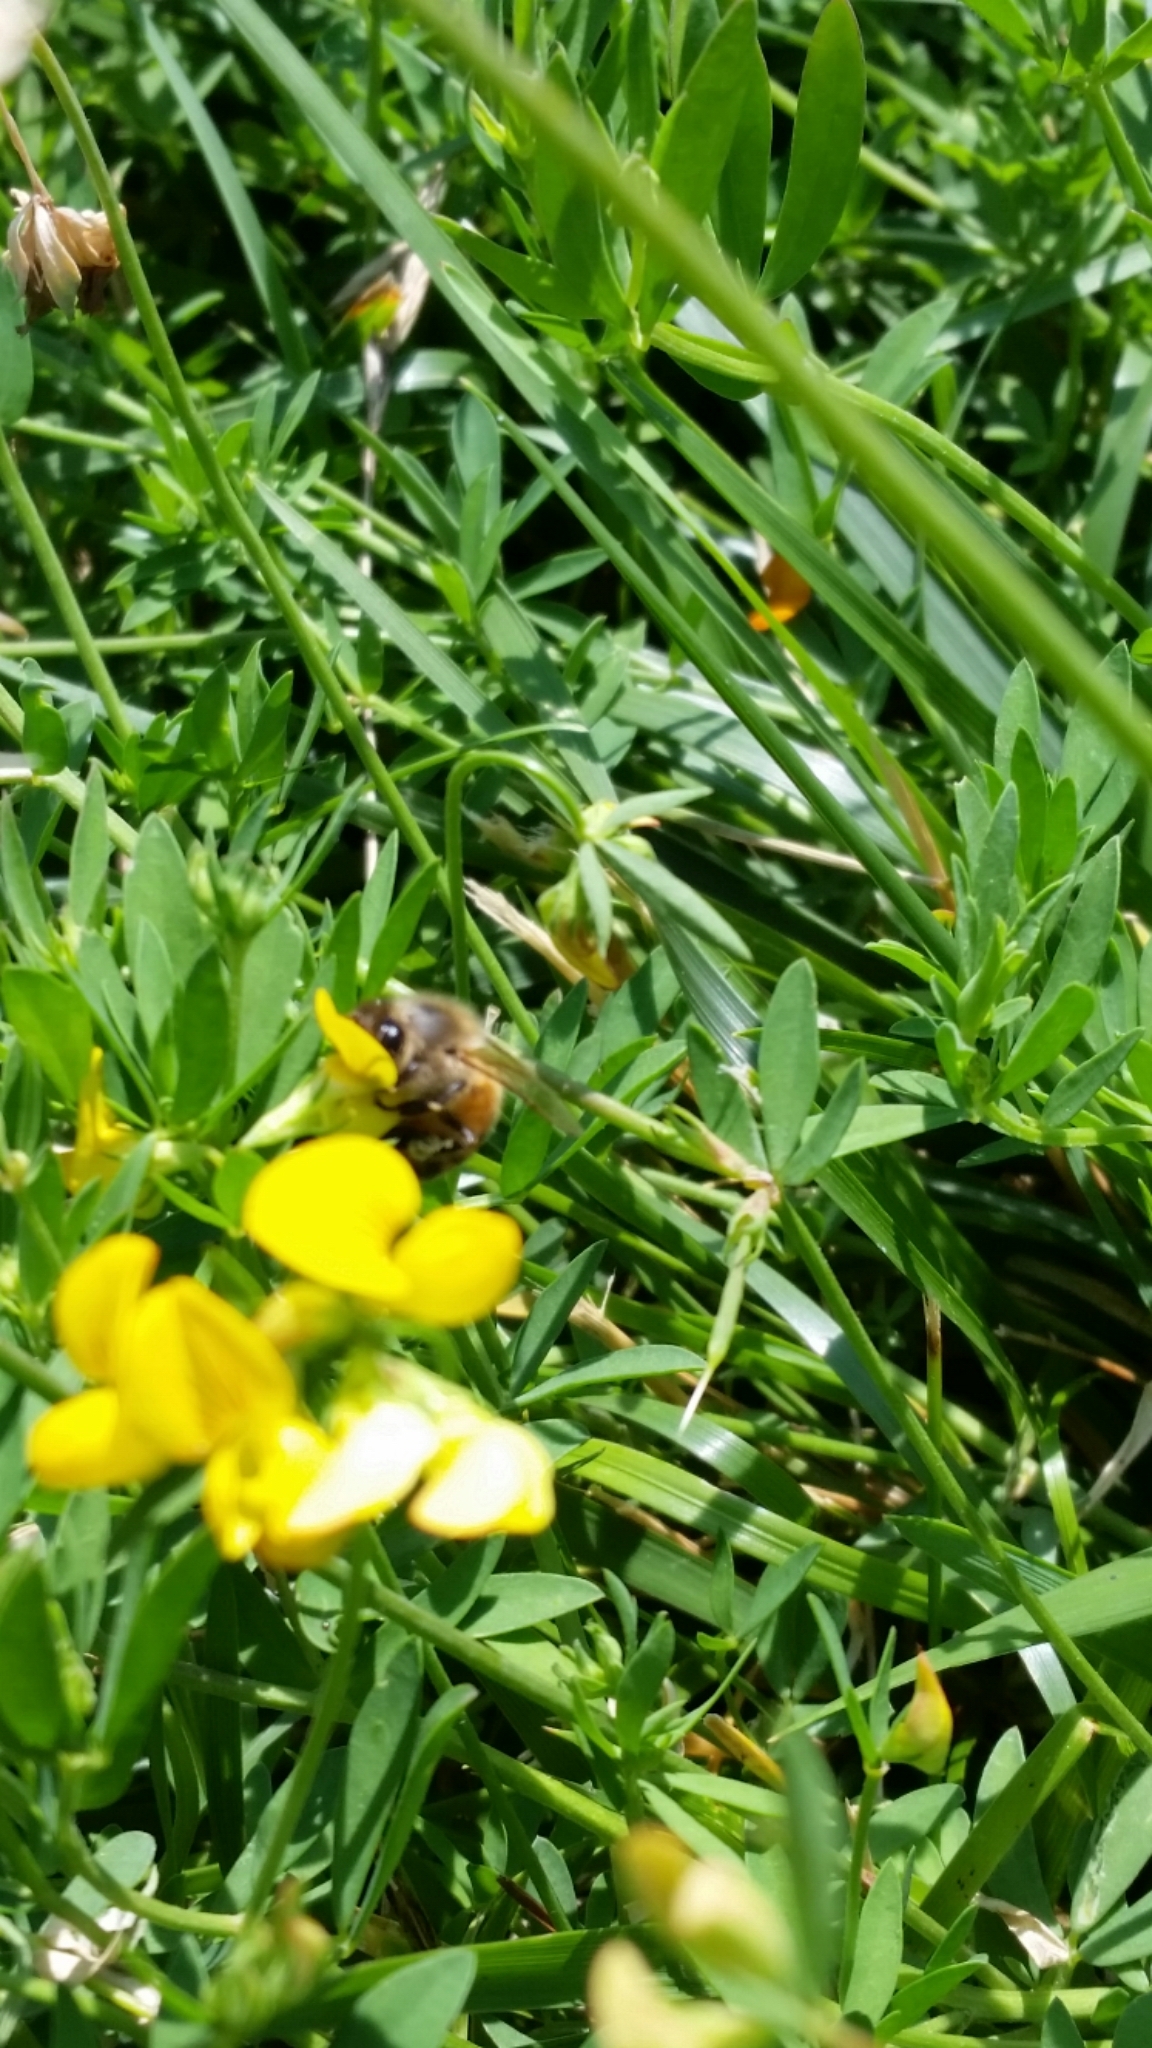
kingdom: Animalia
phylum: Arthropoda
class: Insecta
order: Hymenoptera
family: Apidae
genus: Apis
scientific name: Apis mellifera
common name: Honey bee
